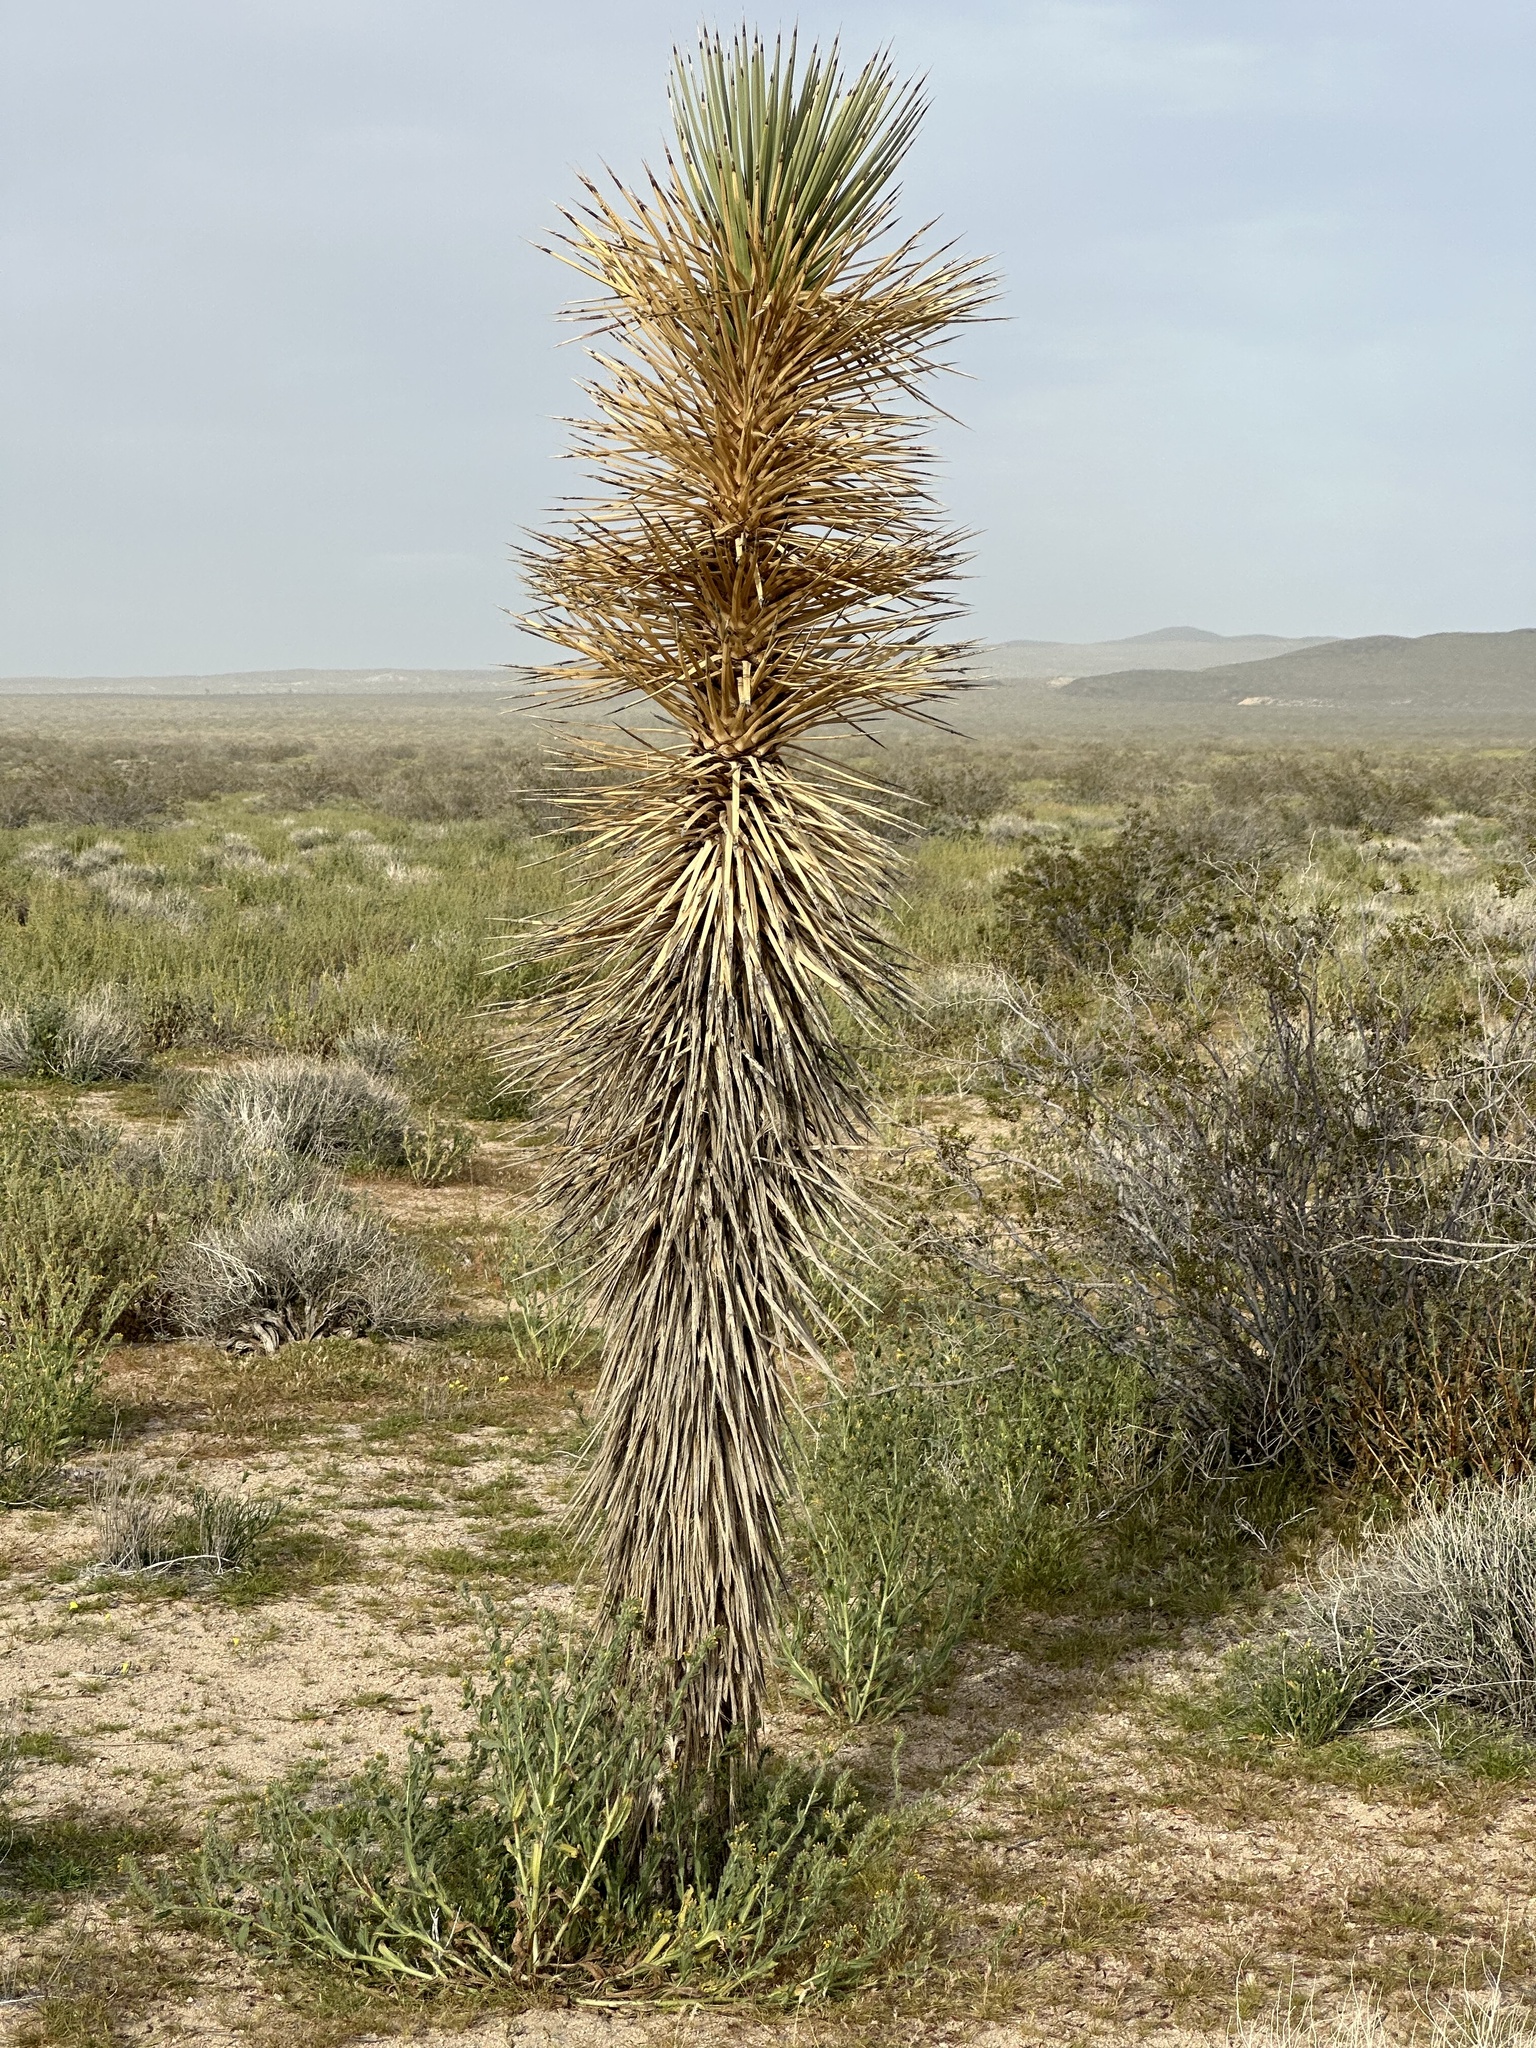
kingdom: Plantae
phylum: Tracheophyta
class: Liliopsida
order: Asparagales
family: Asparagaceae
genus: Yucca
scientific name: Yucca brevifolia
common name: Joshua tree
